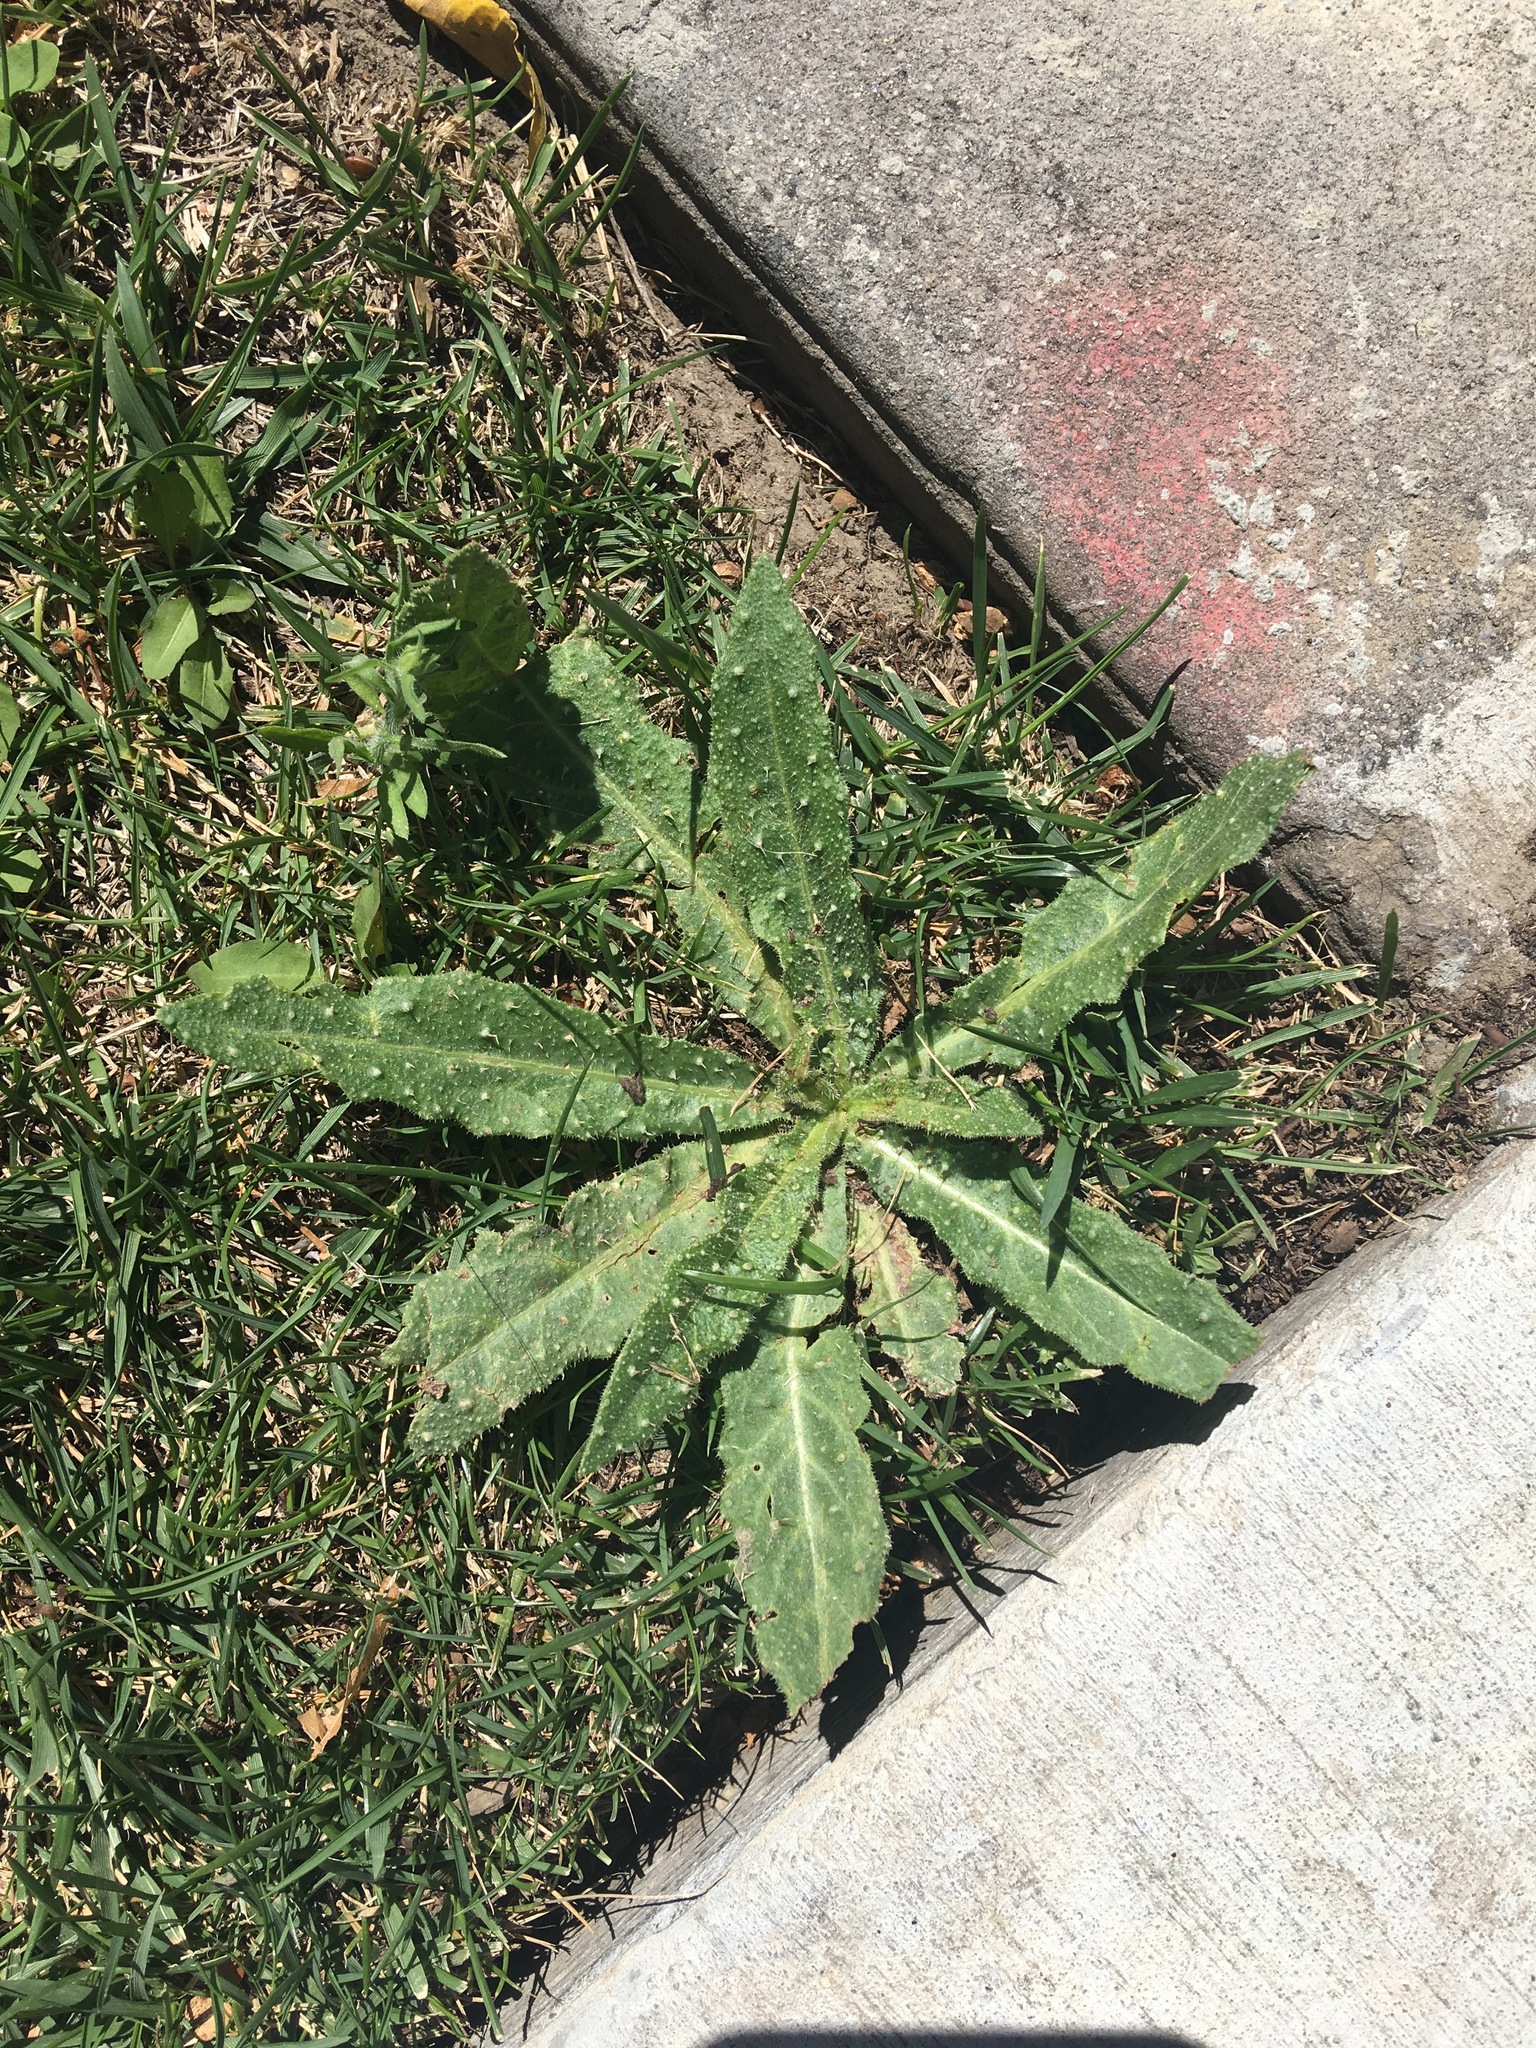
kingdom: Plantae
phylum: Tracheophyta
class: Magnoliopsida
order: Asterales
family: Asteraceae
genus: Helminthotheca
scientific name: Helminthotheca echioides
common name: Ox-tongue
